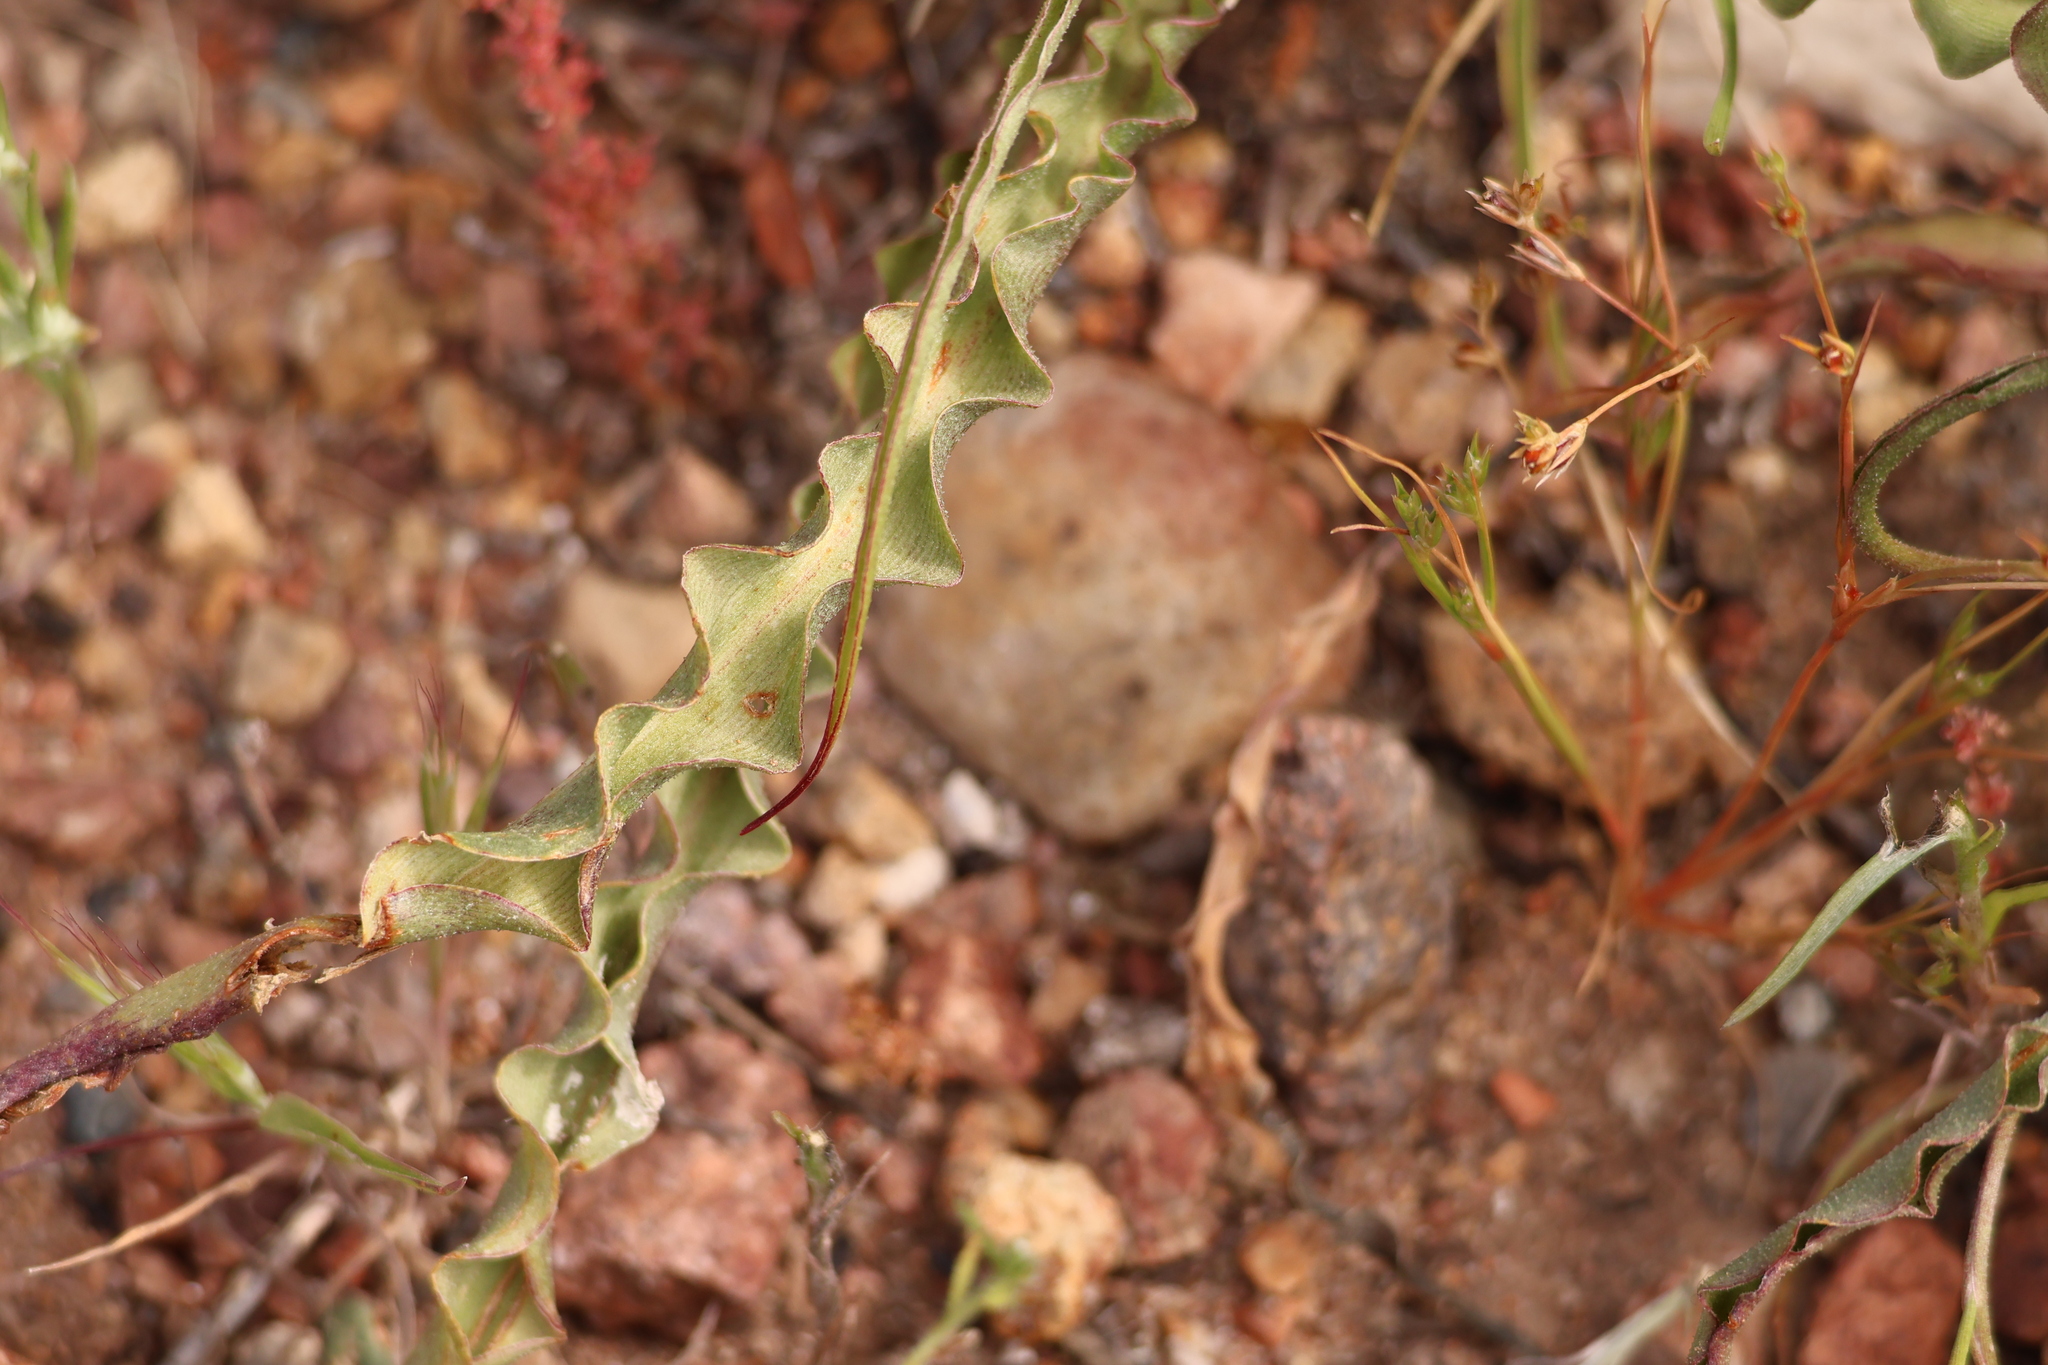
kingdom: Plantae
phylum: Tracheophyta
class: Liliopsida
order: Asparagales
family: Asparagaceae
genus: Hooveria
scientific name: Hooveria parviflora
